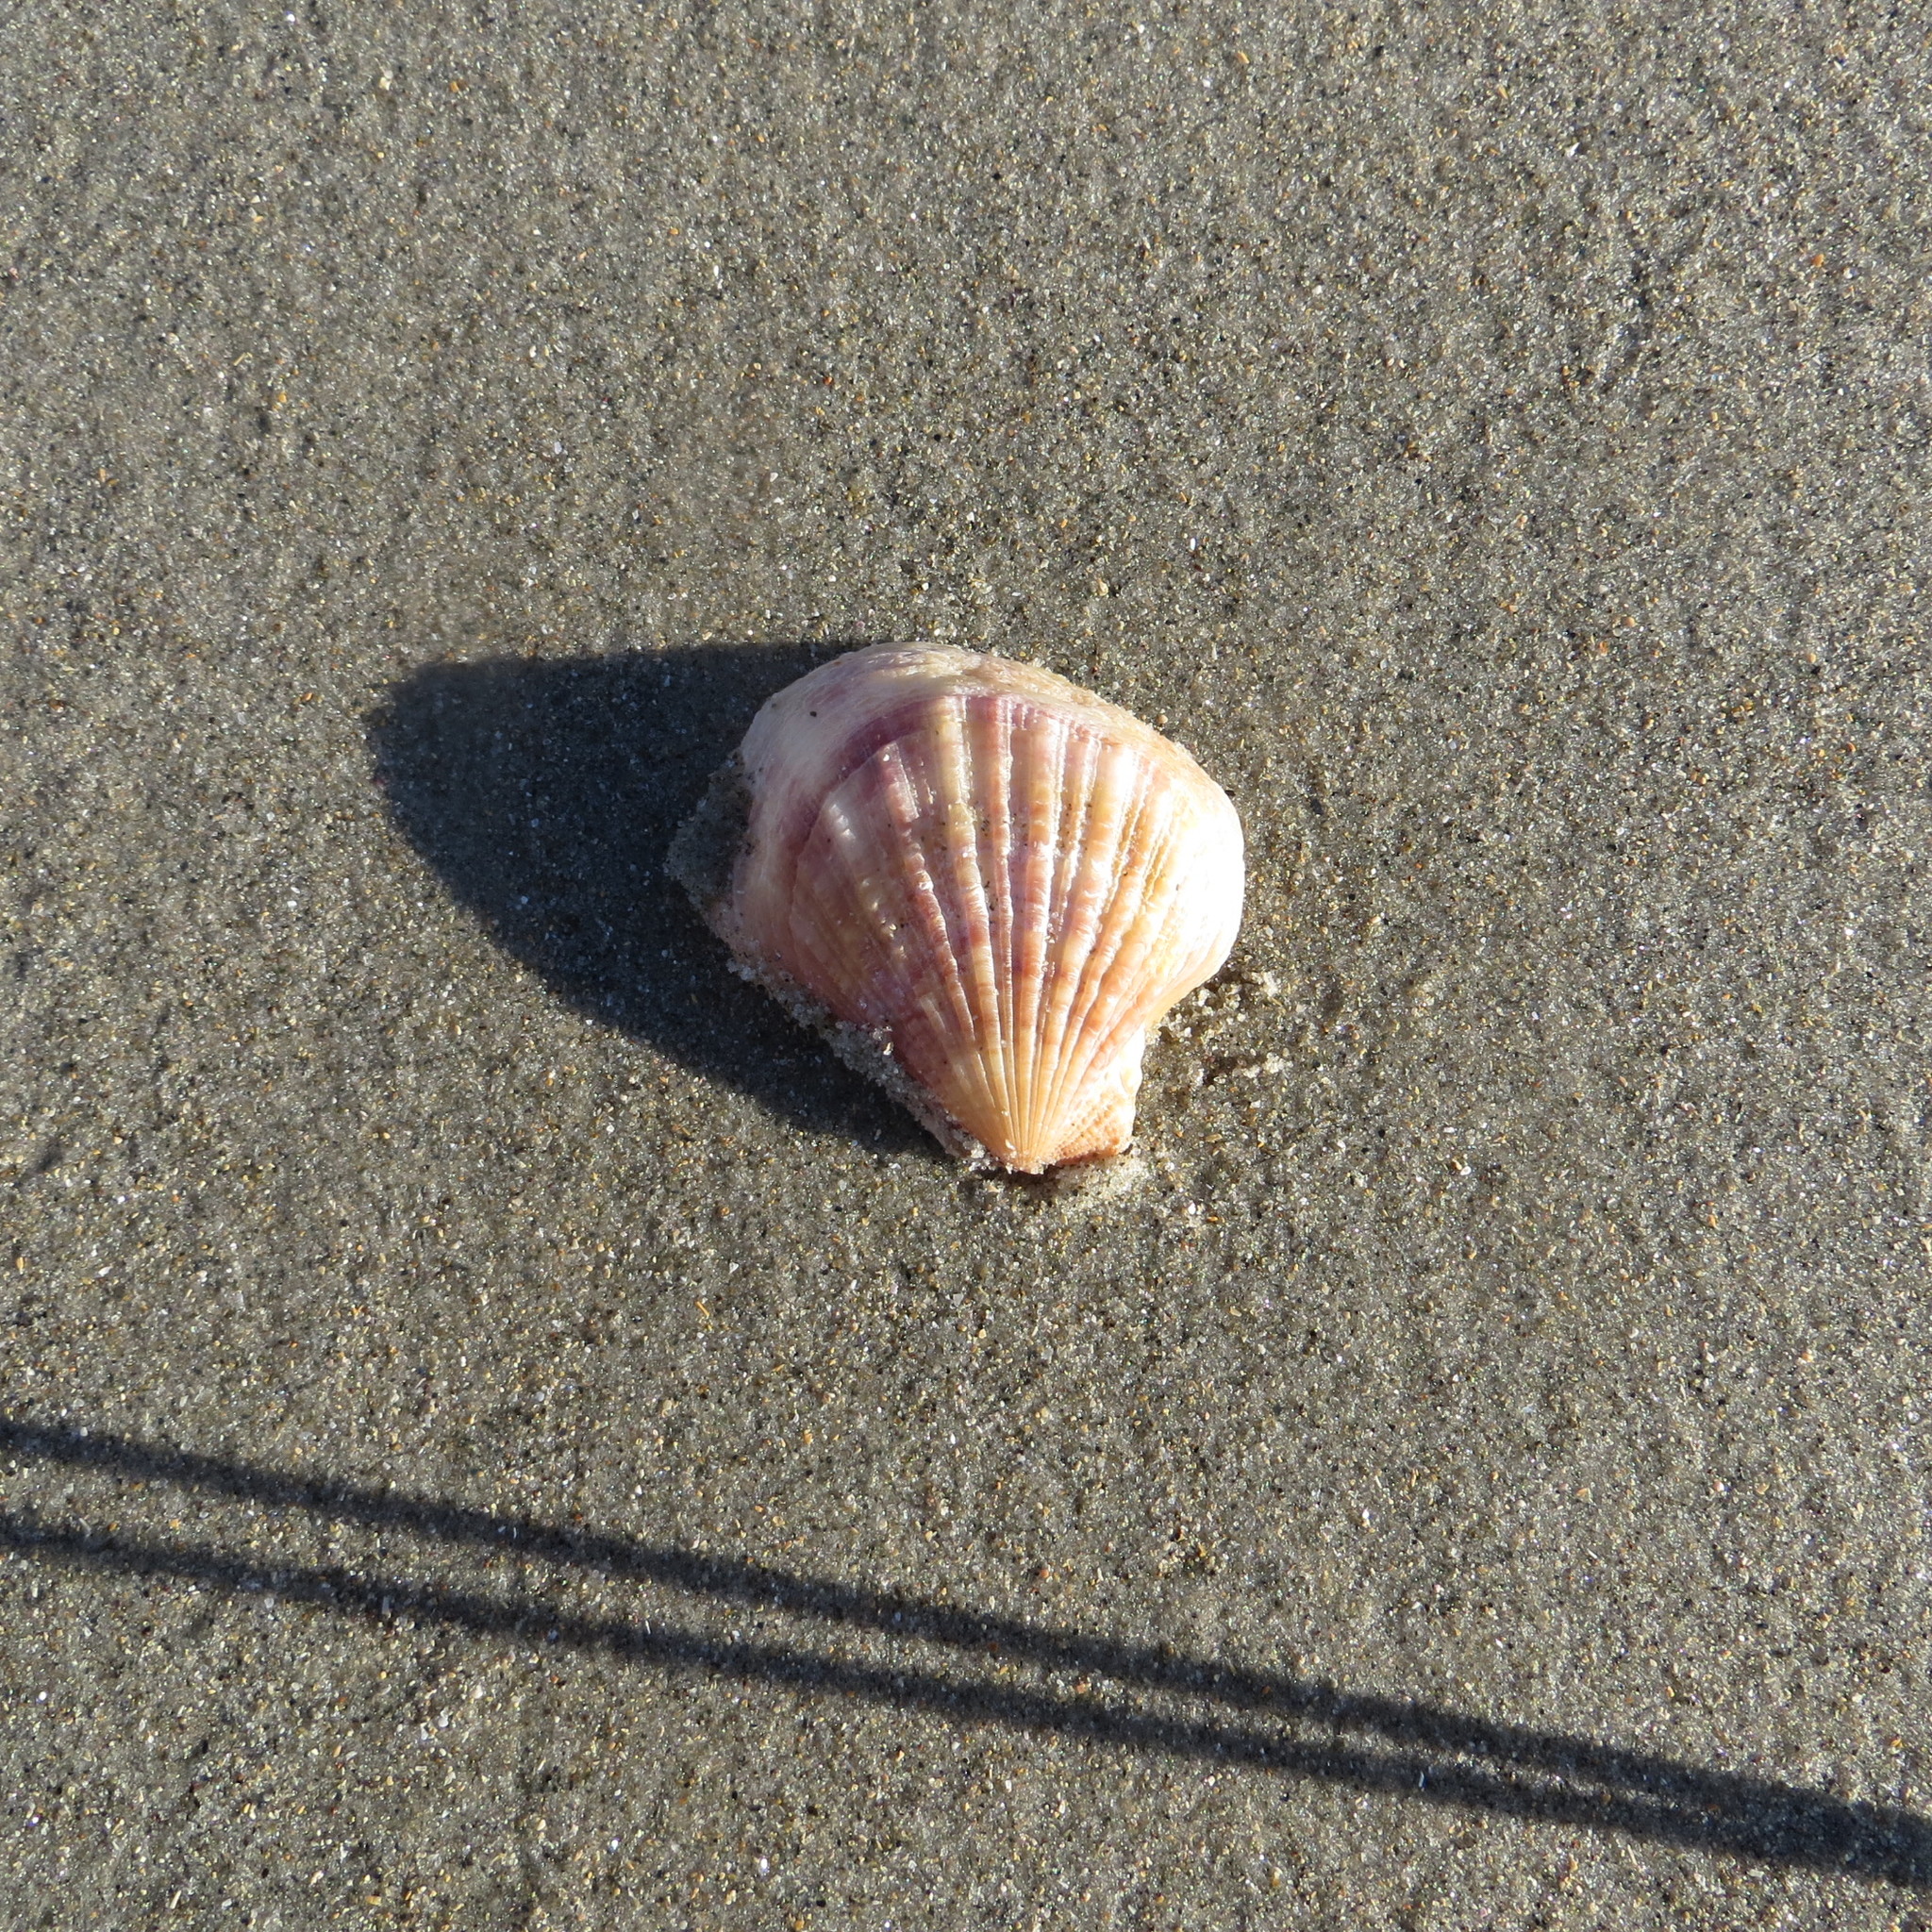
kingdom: Animalia
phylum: Mollusca
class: Bivalvia
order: Pectinida
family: Pectinidae
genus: Talochlamys
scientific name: Talochlamys zelandiae
